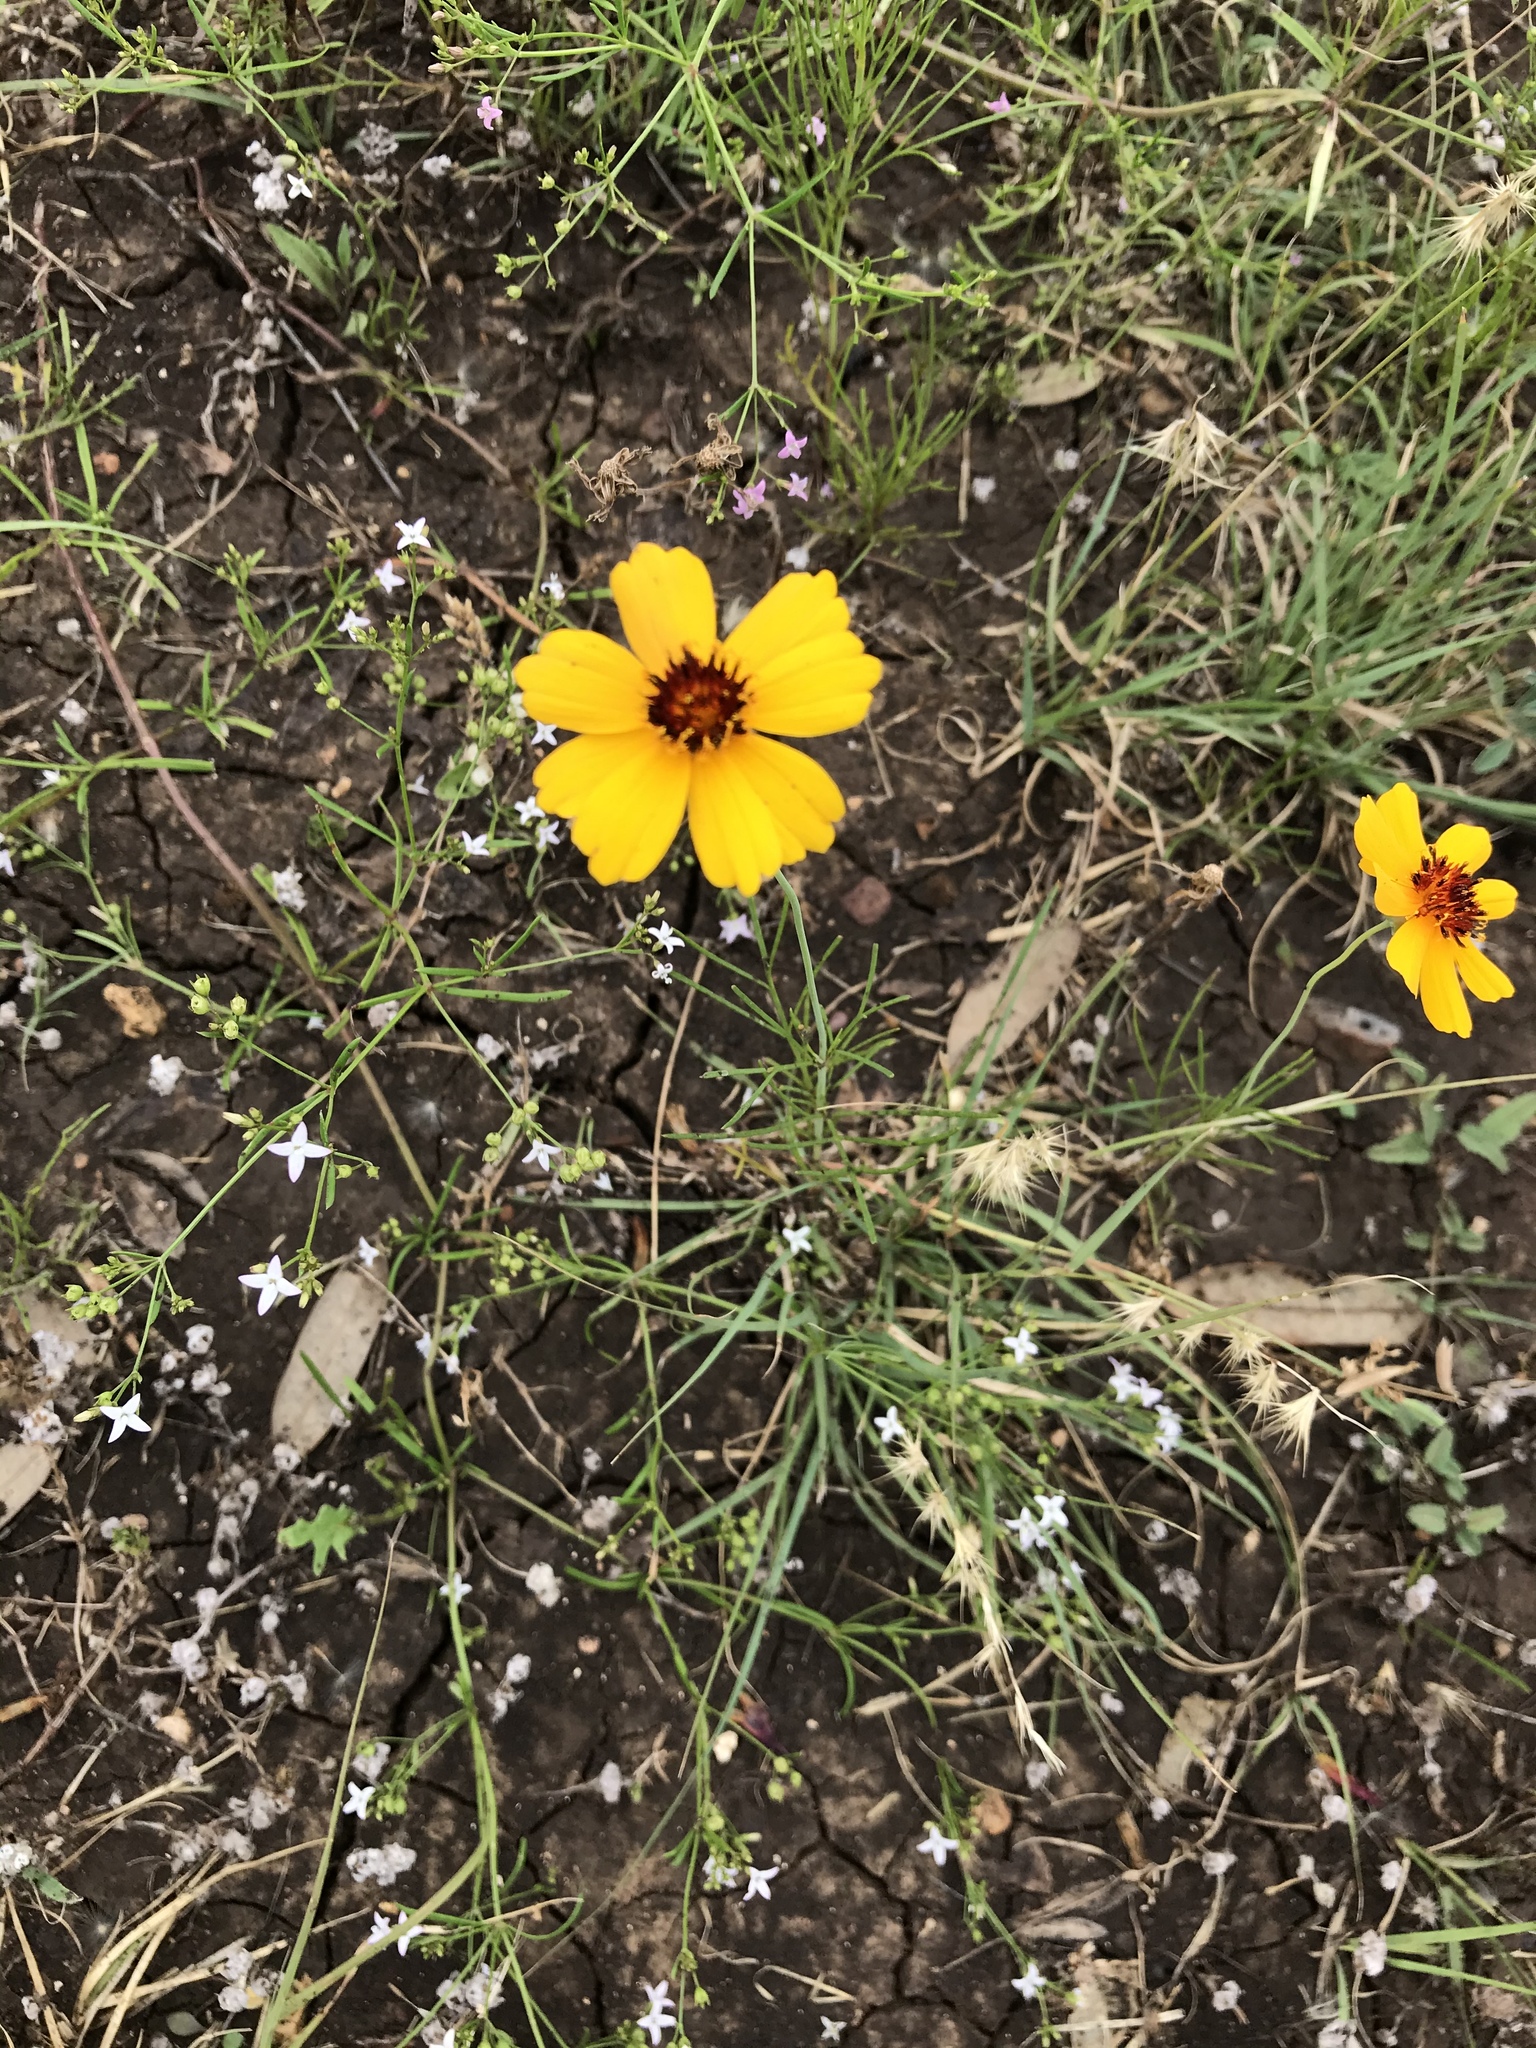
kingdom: Plantae
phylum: Tracheophyta
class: Magnoliopsida
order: Asterales
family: Asteraceae
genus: Thelesperma
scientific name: Thelesperma filifolium
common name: Stiff greenthread
